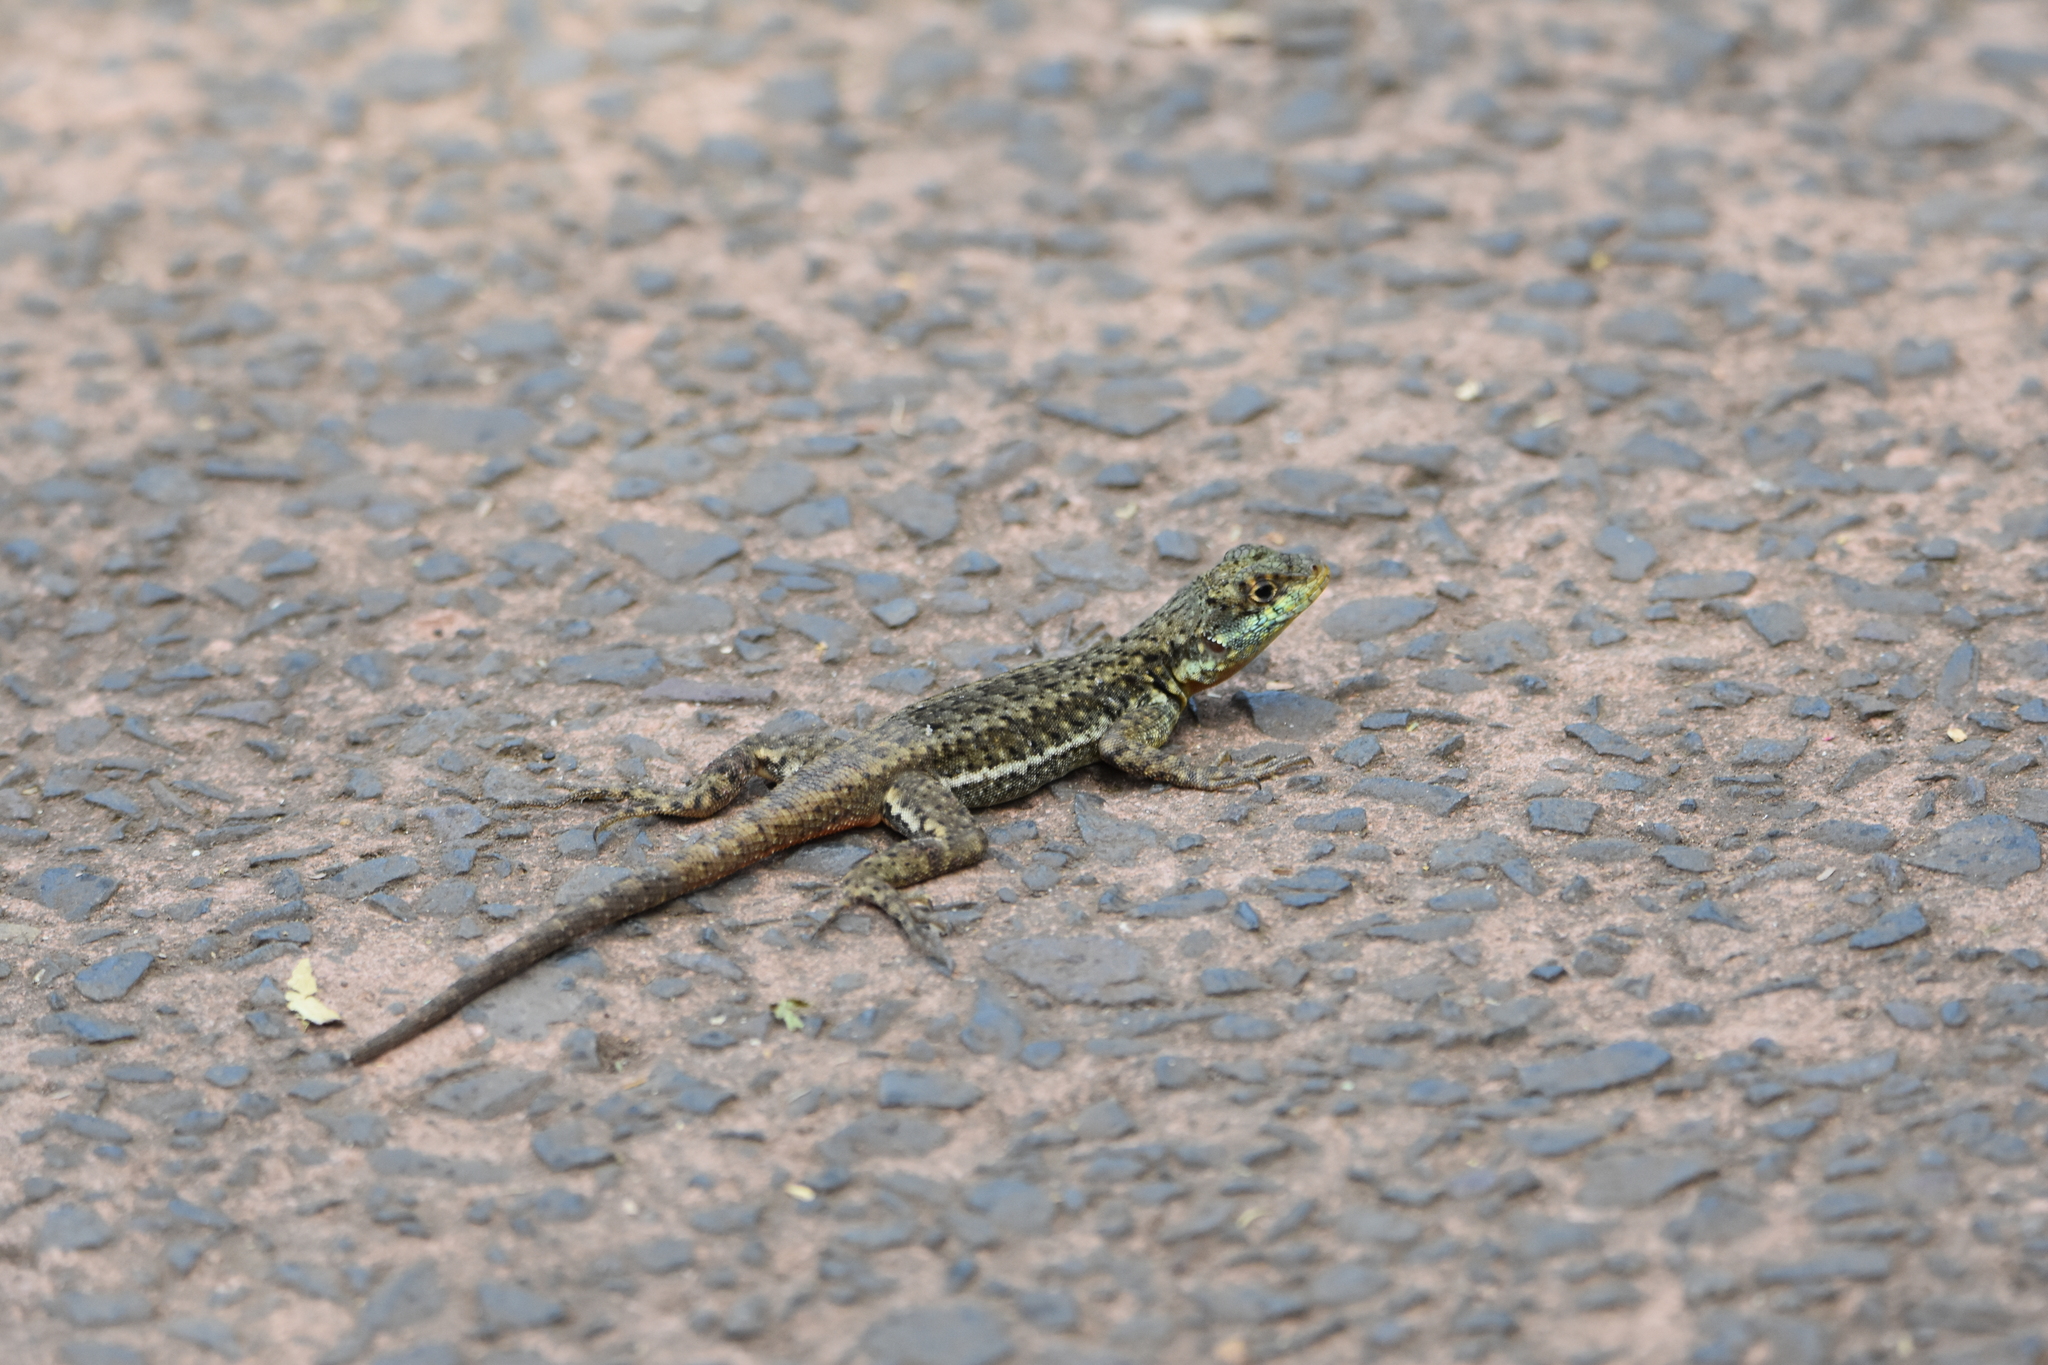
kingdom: Animalia
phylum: Chordata
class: Squamata
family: Tropiduridae
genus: Tropidurus
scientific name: Tropidurus catalanensis
